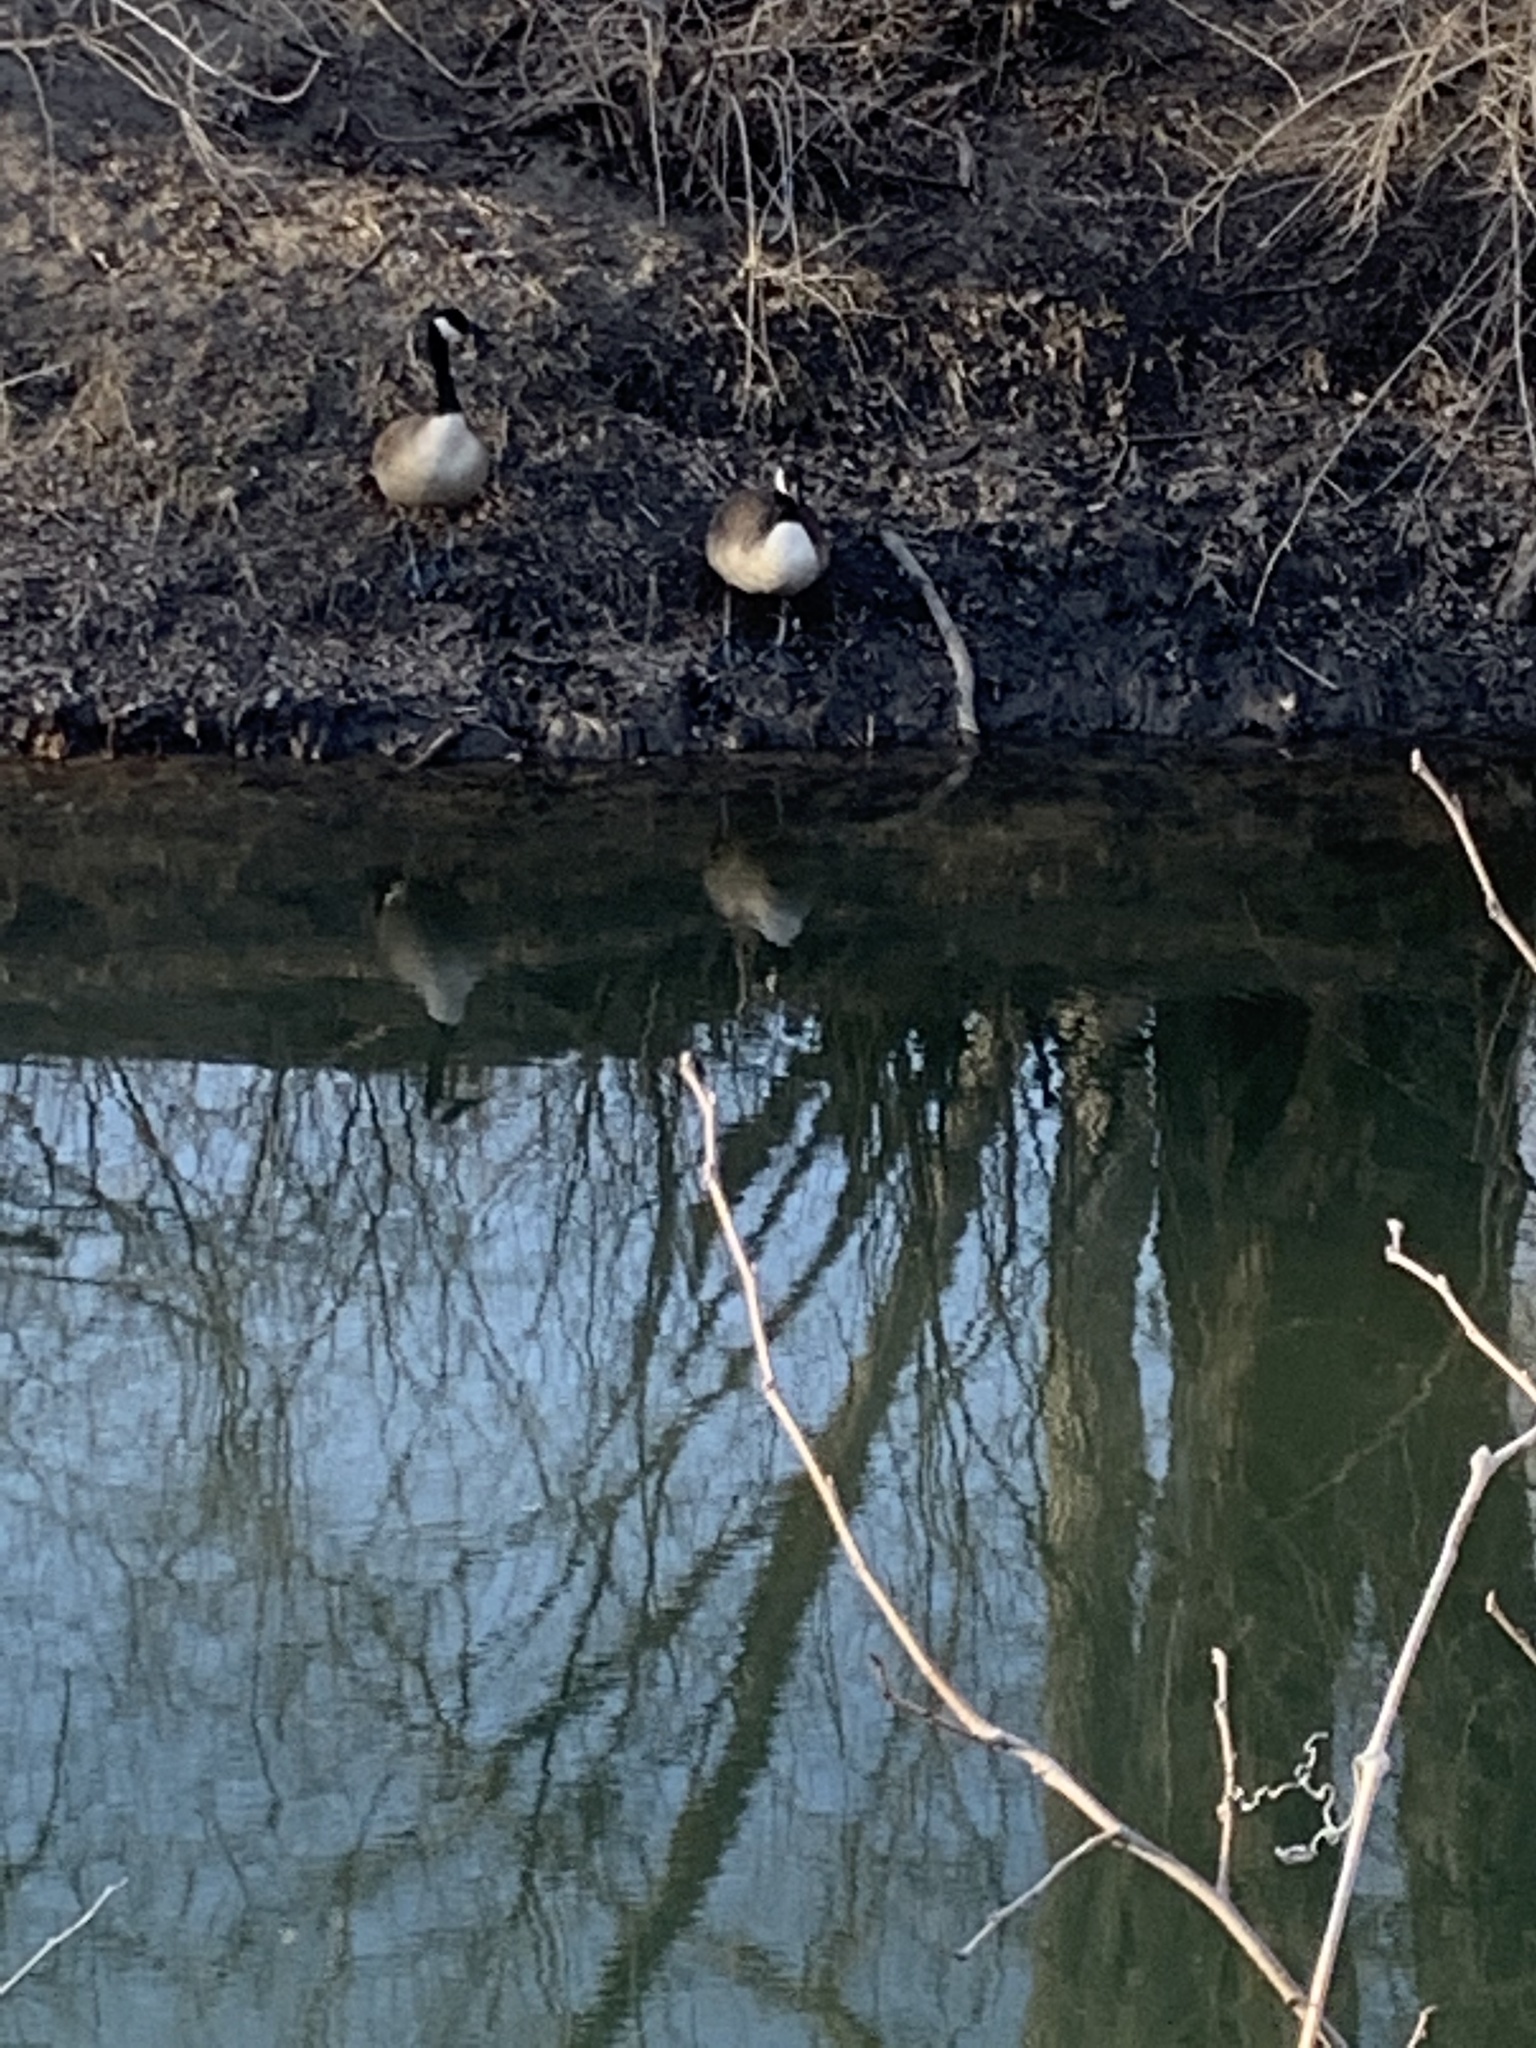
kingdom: Animalia
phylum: Chordata
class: Aves
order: Anseriformes
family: Anatidae
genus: Branta
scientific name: Branta canadensis
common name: Canada goose
